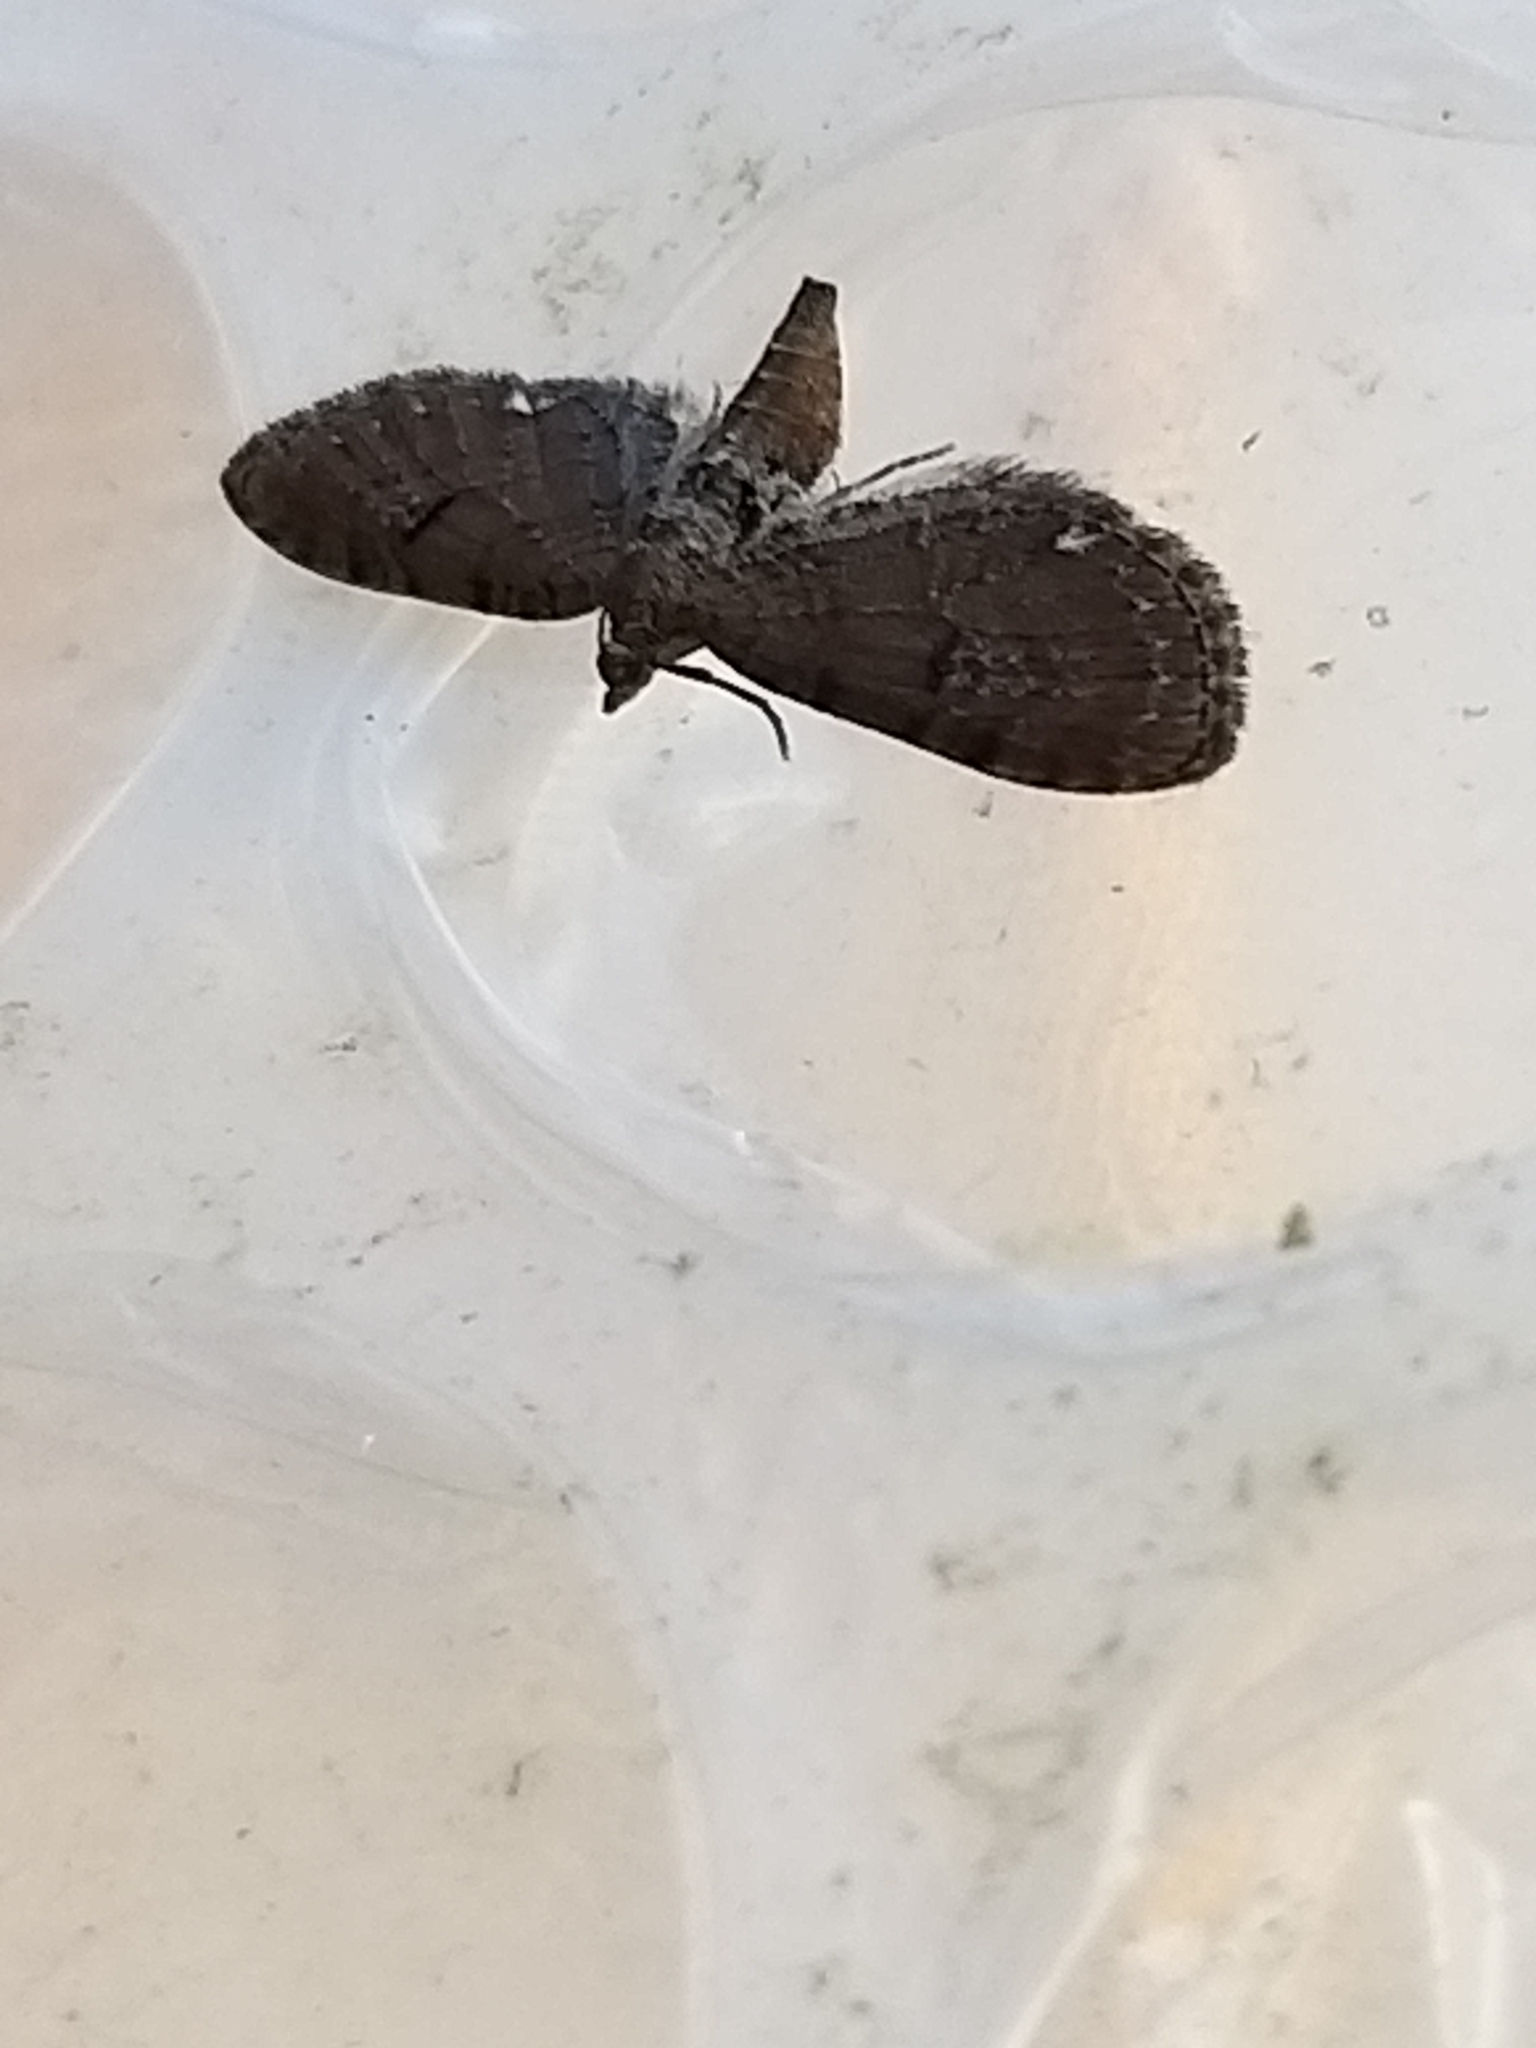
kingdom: Animalia
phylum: Arthropoda
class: Insecta
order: Lepidoptera
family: Geometridae
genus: Eupithecia
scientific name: Eupithecia assimilata
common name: Currant pug
